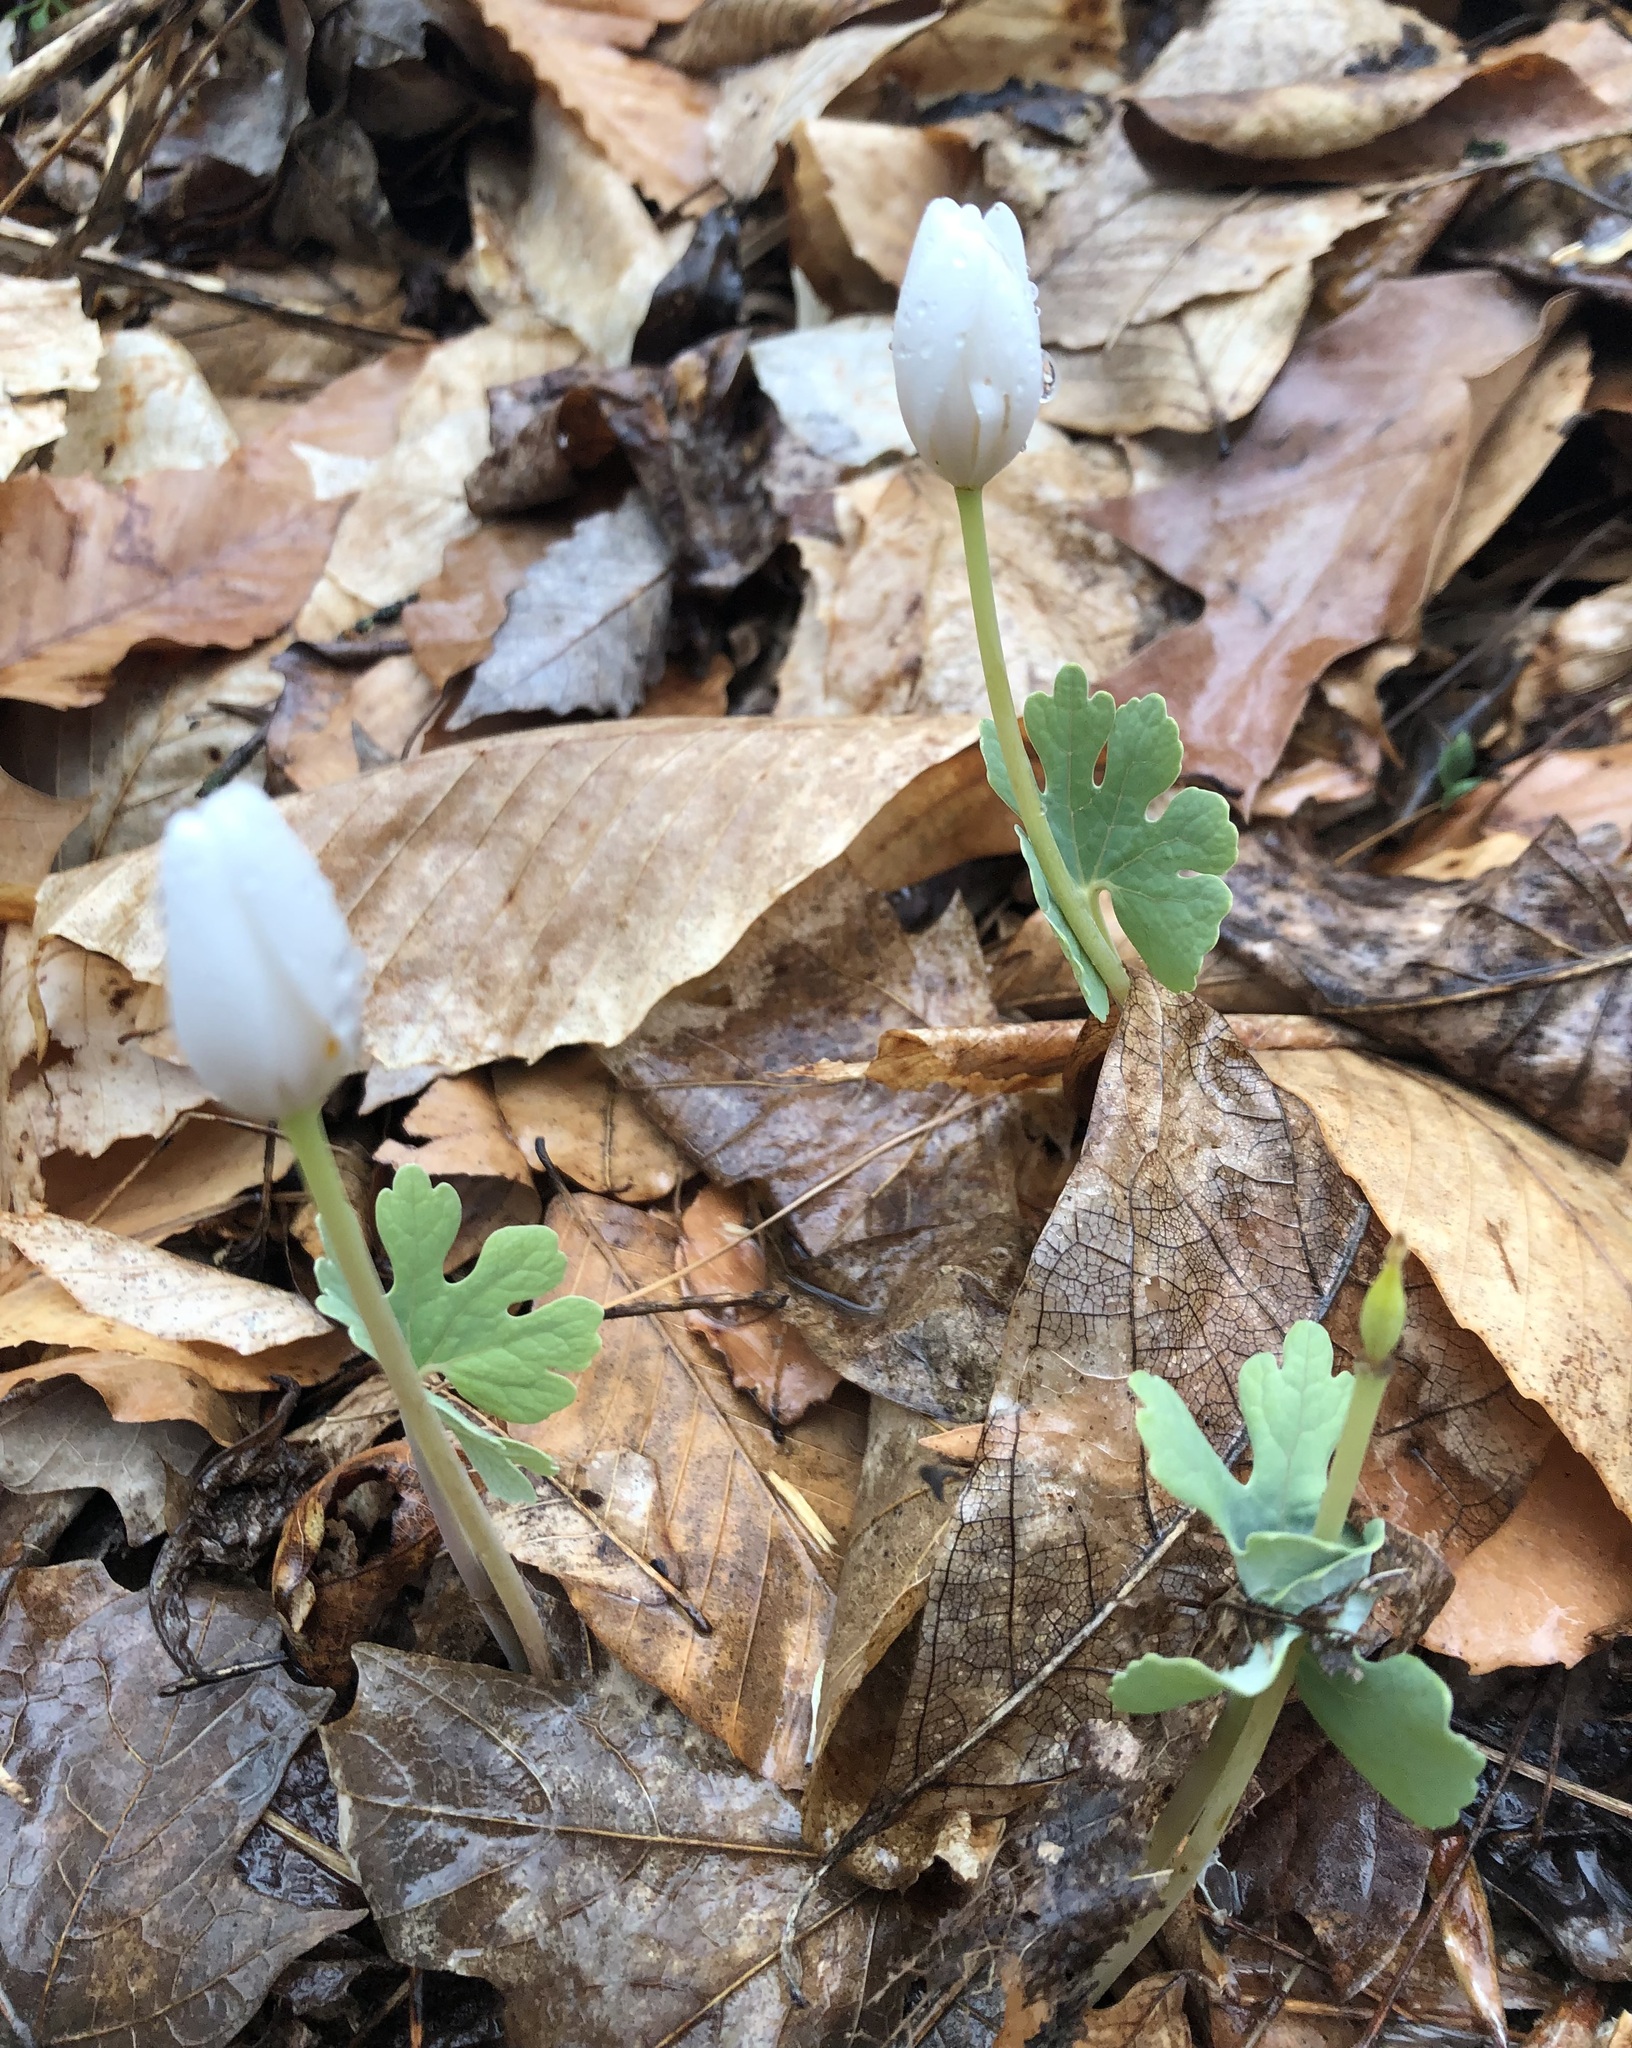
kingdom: Plantae
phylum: Tracheophyta
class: Magnoliopsida
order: Ranunculales
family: Papaveraceae
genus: Sanguinaria
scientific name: Sanguinaria canadensis
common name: Bloodroot
